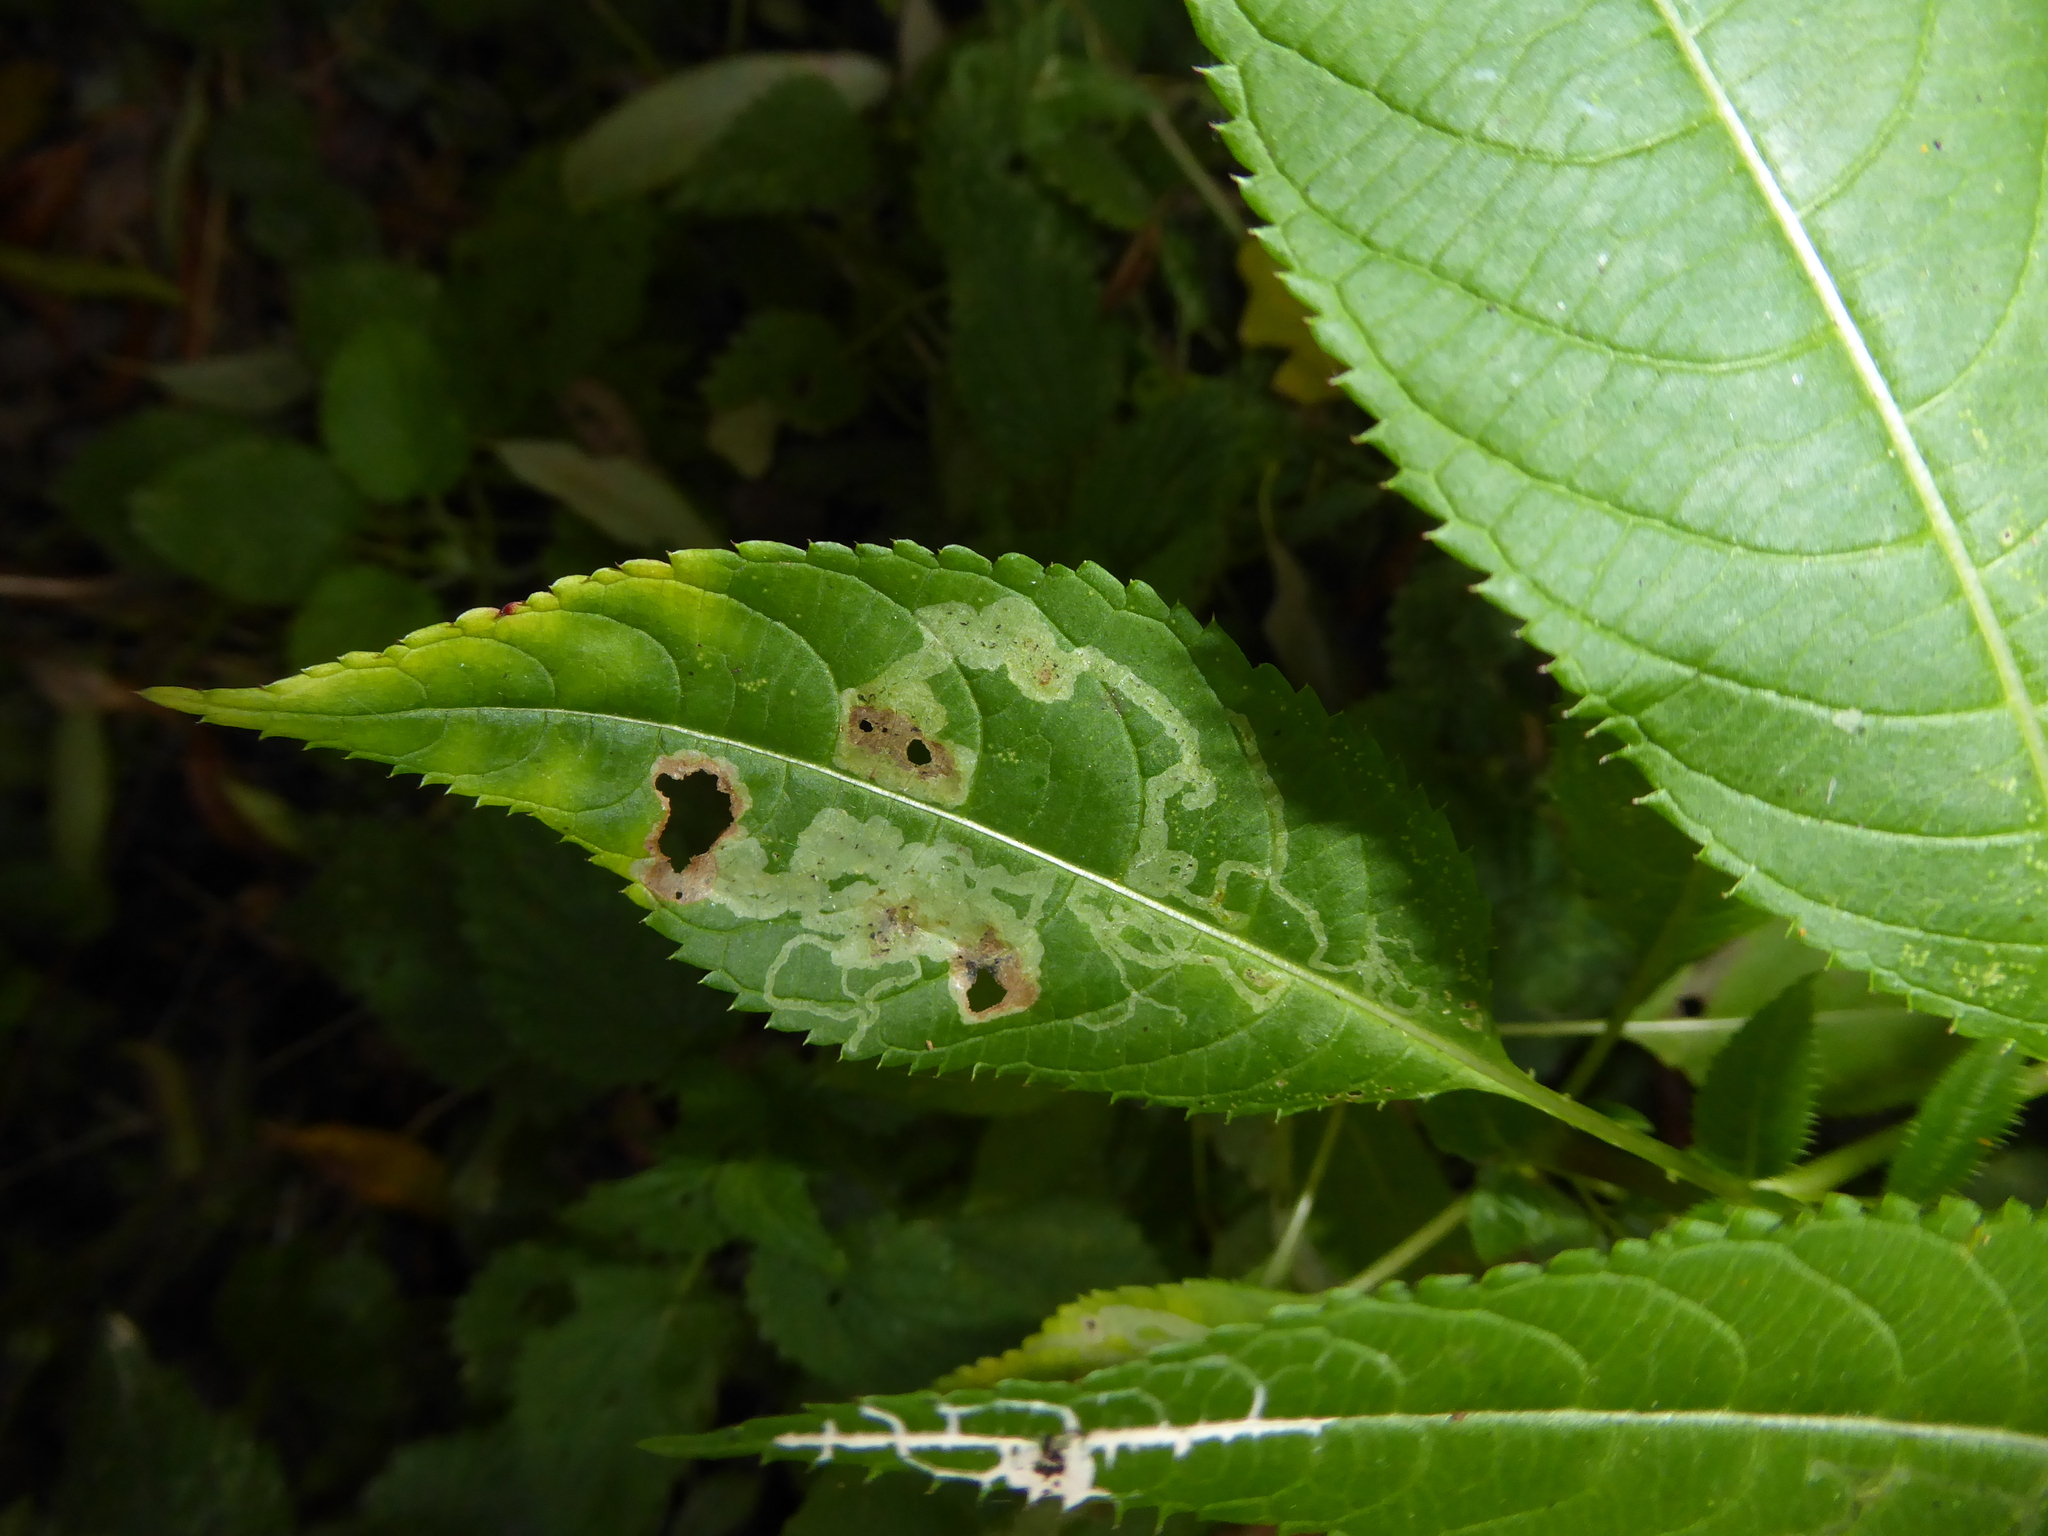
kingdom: Animalia
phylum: Arthropoda
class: Insecta
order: Diptera
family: Agromyzidae
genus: Phytoliriomyza
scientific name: Phytoliriomyza melampyga
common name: Jewelweed leaf-miner fly
